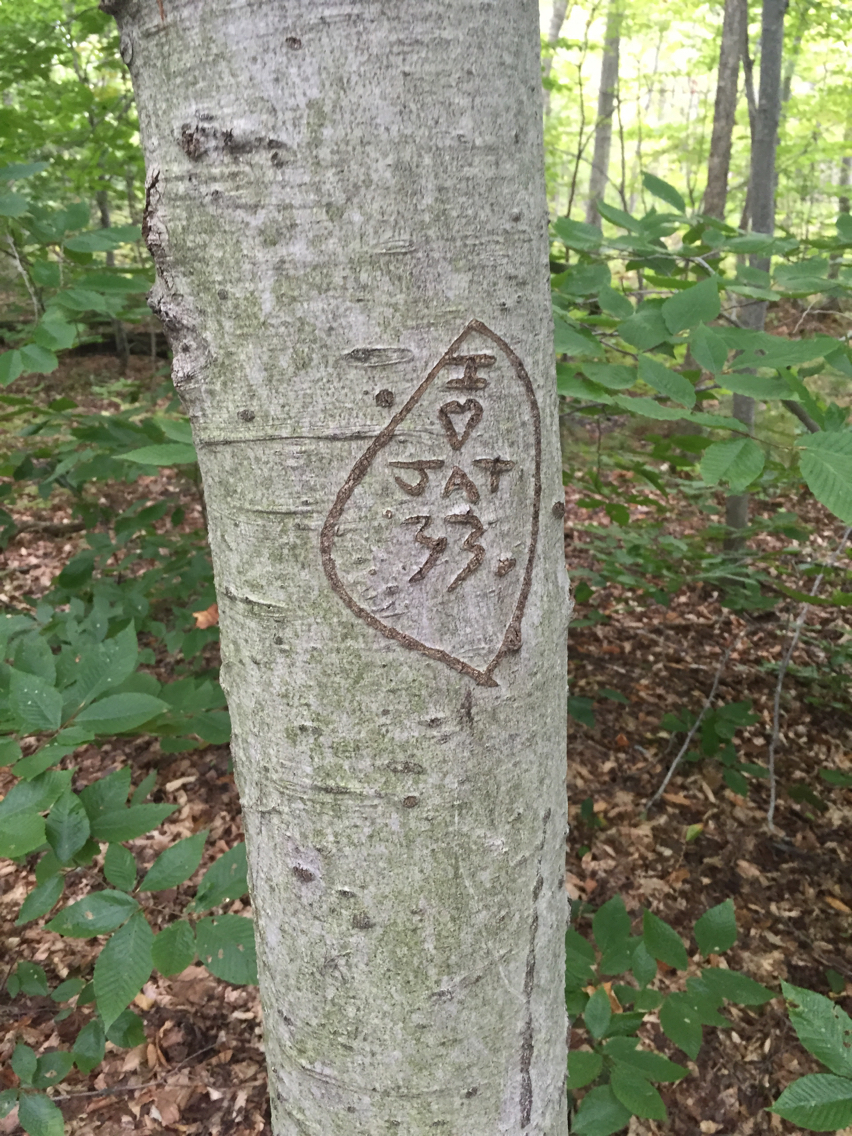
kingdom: Plantae
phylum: Tracheophyta
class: Magnoliopsida
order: Fagales
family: Fagaceae
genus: Fagus
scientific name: Fagus grandifolia
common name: American beech
